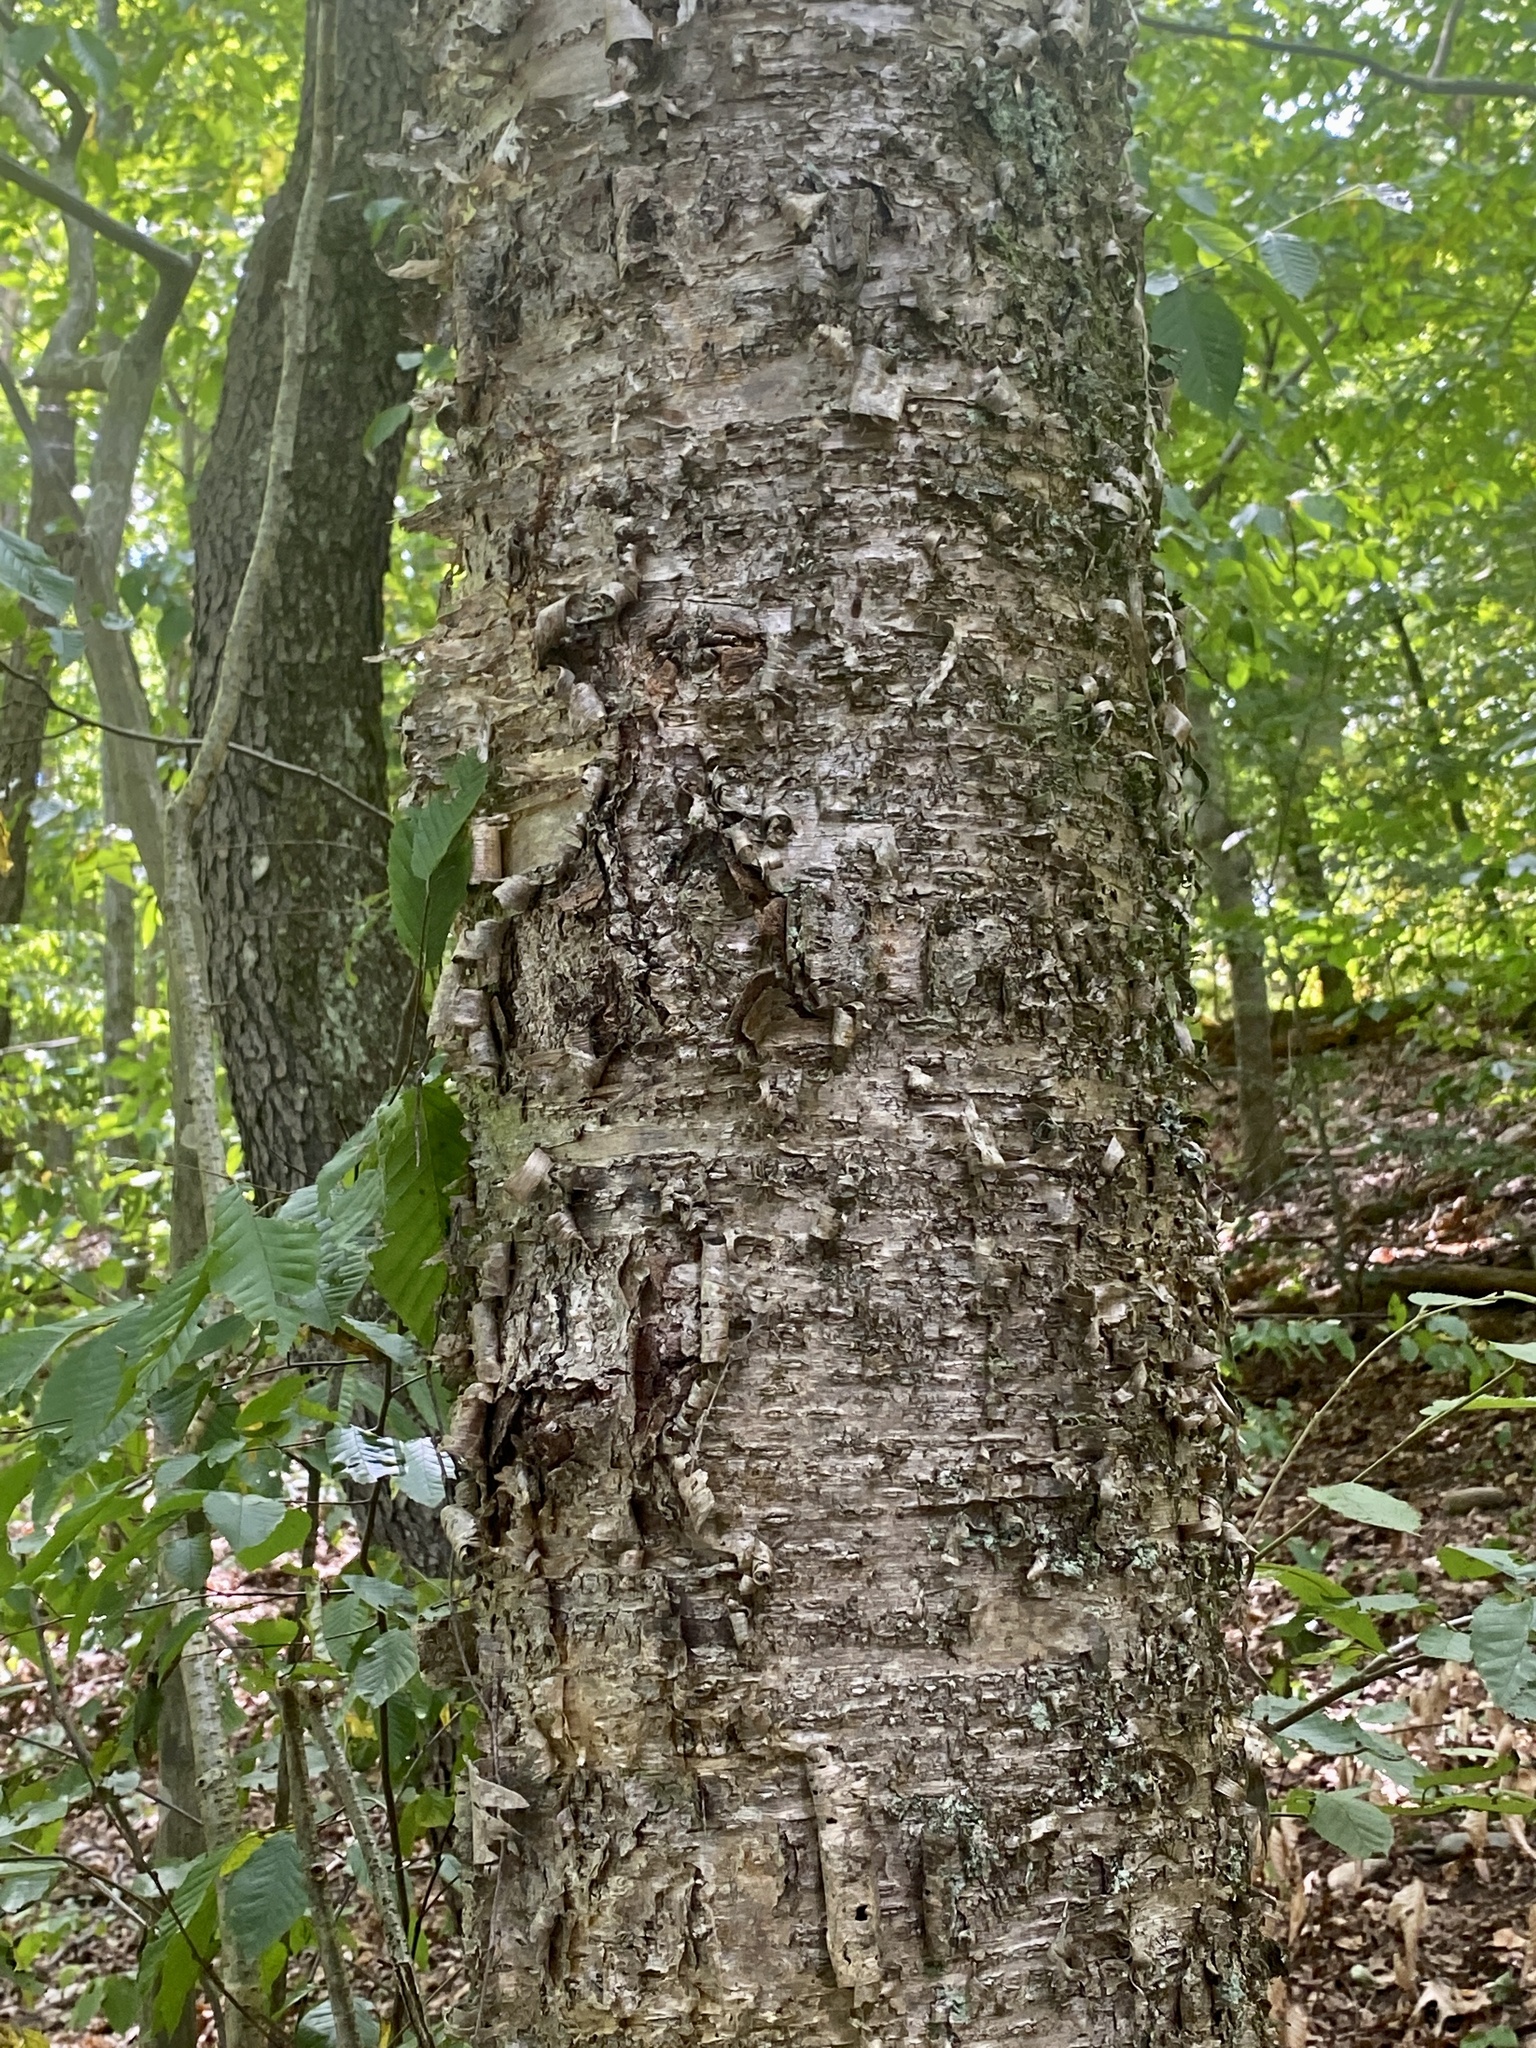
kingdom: Plantae
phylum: Tracheophyta
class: Magnoliopsida
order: Fagales
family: Betulaceae
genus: Betula
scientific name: Betula alleghaniensis
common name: Yellow birch
